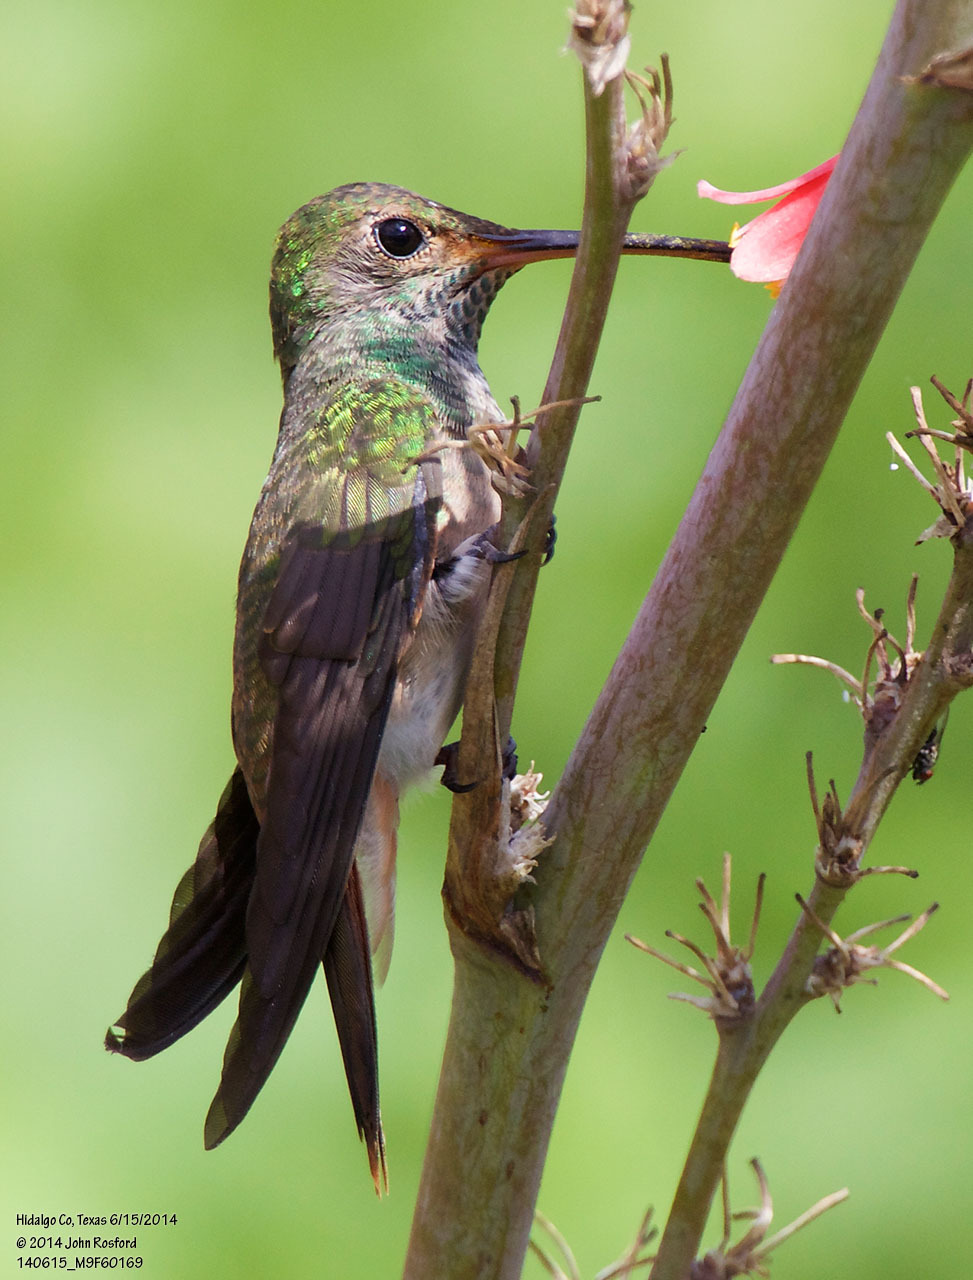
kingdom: Animalia
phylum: Chordata
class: Aves
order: Apodiformes
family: Trochilidae
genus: Amazilia
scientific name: Amazilia yucatanensis
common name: Buff-bellied hummingbird
